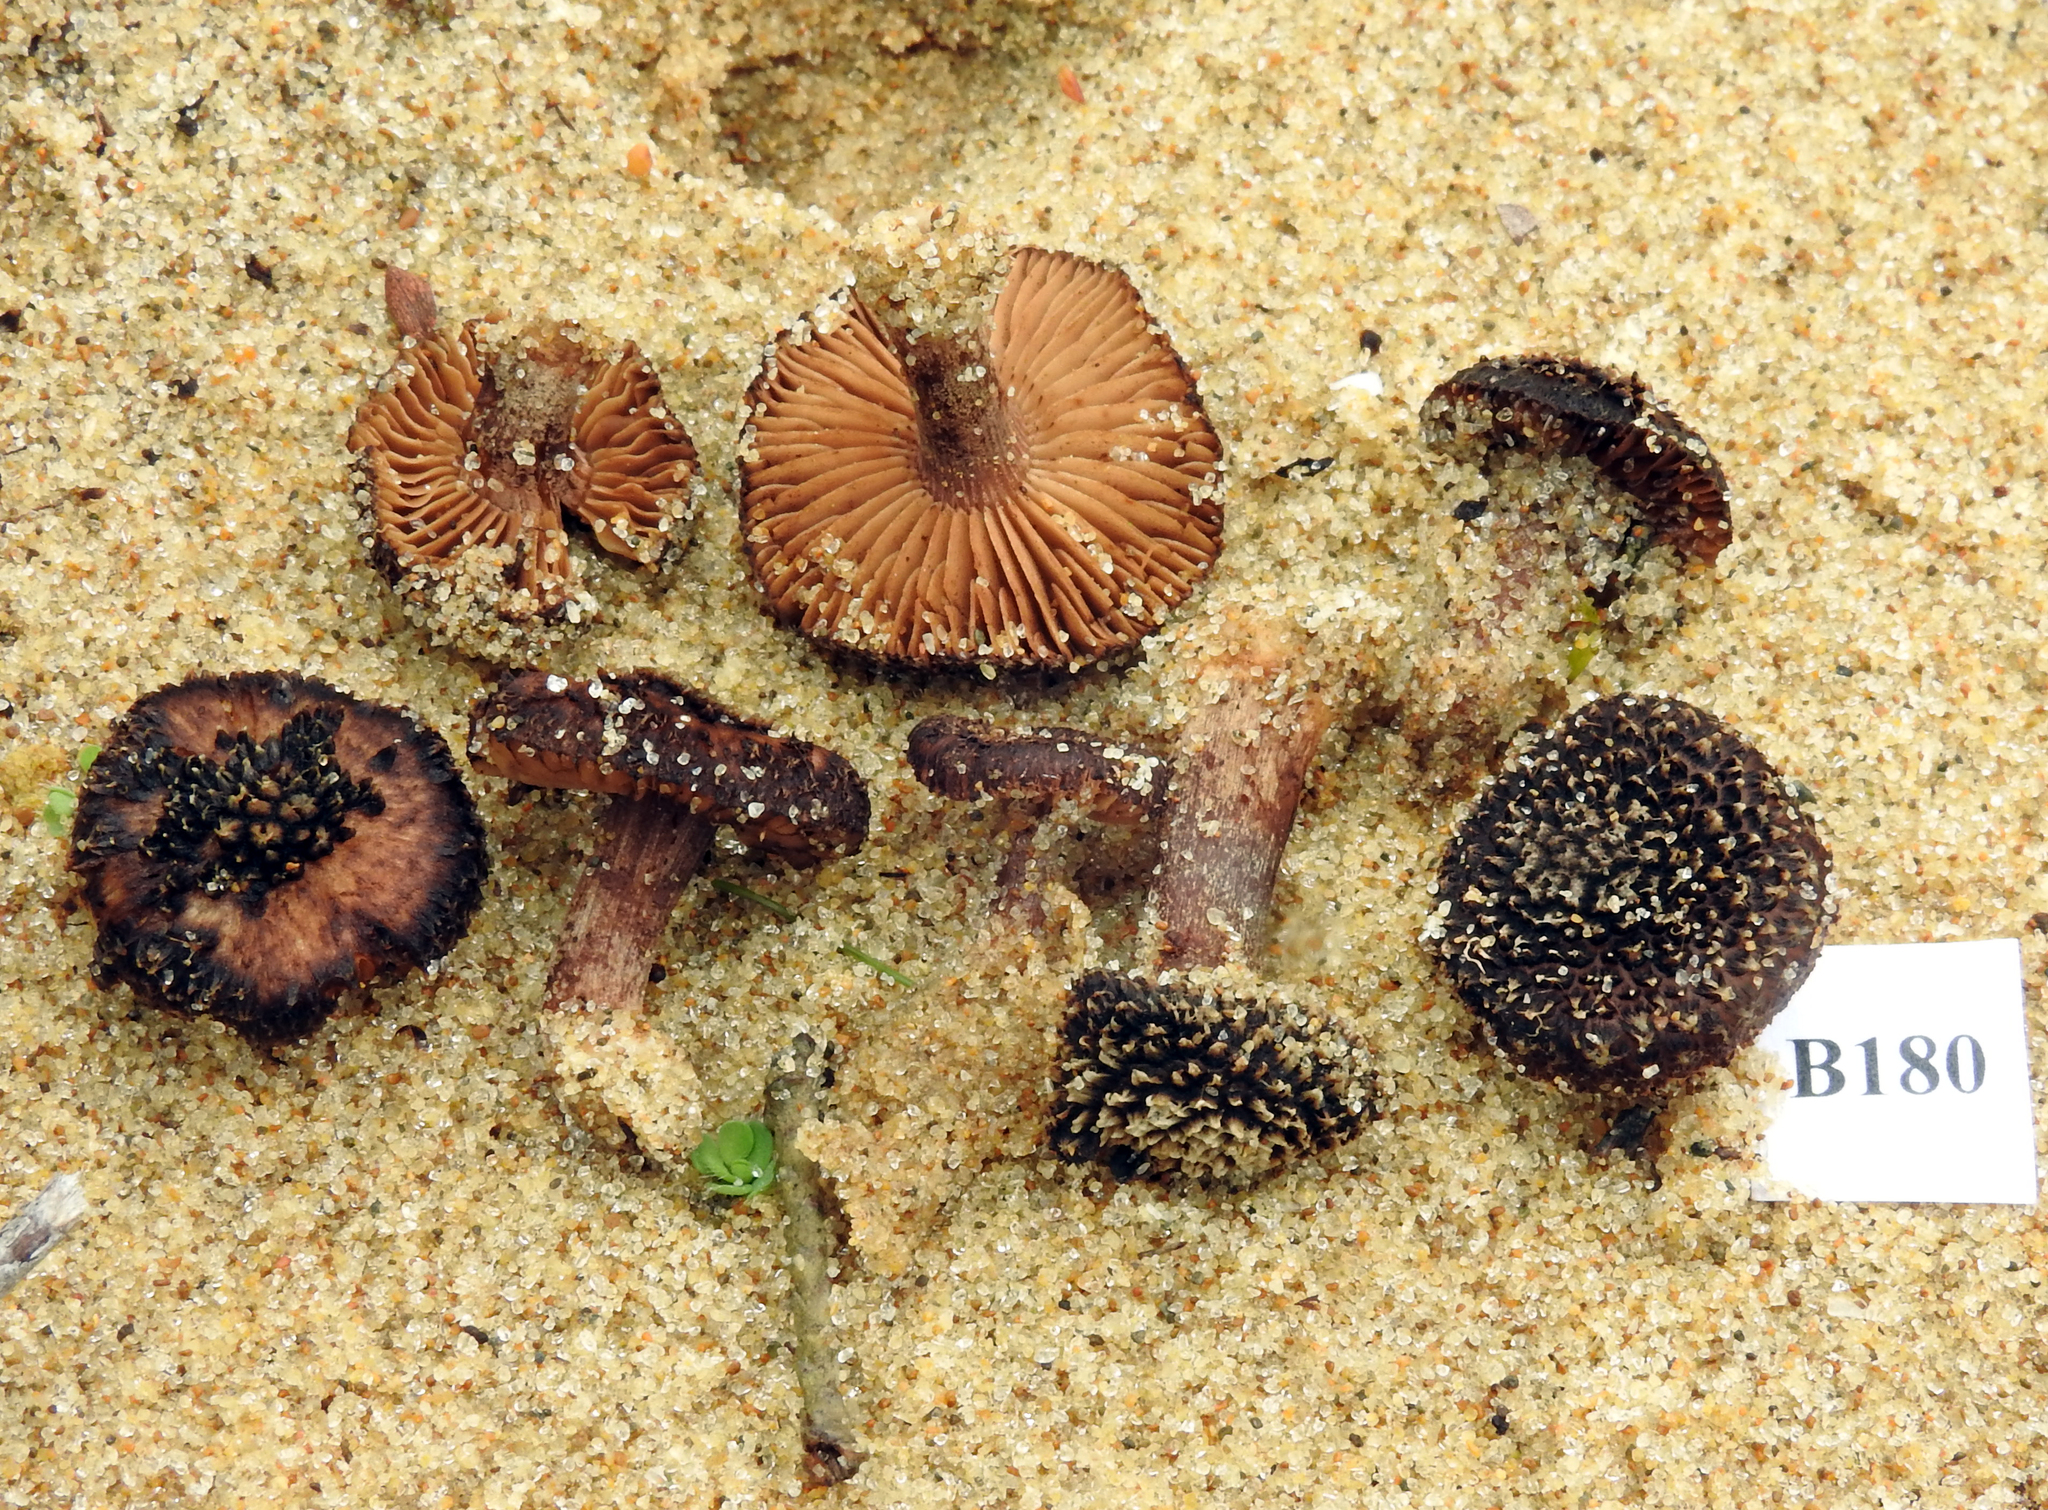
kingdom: Fungi
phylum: Basidiomycota
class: Agaricomycetes
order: Agaricales
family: Inocybaceae
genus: Inocybe
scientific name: Inocybe brevicula
